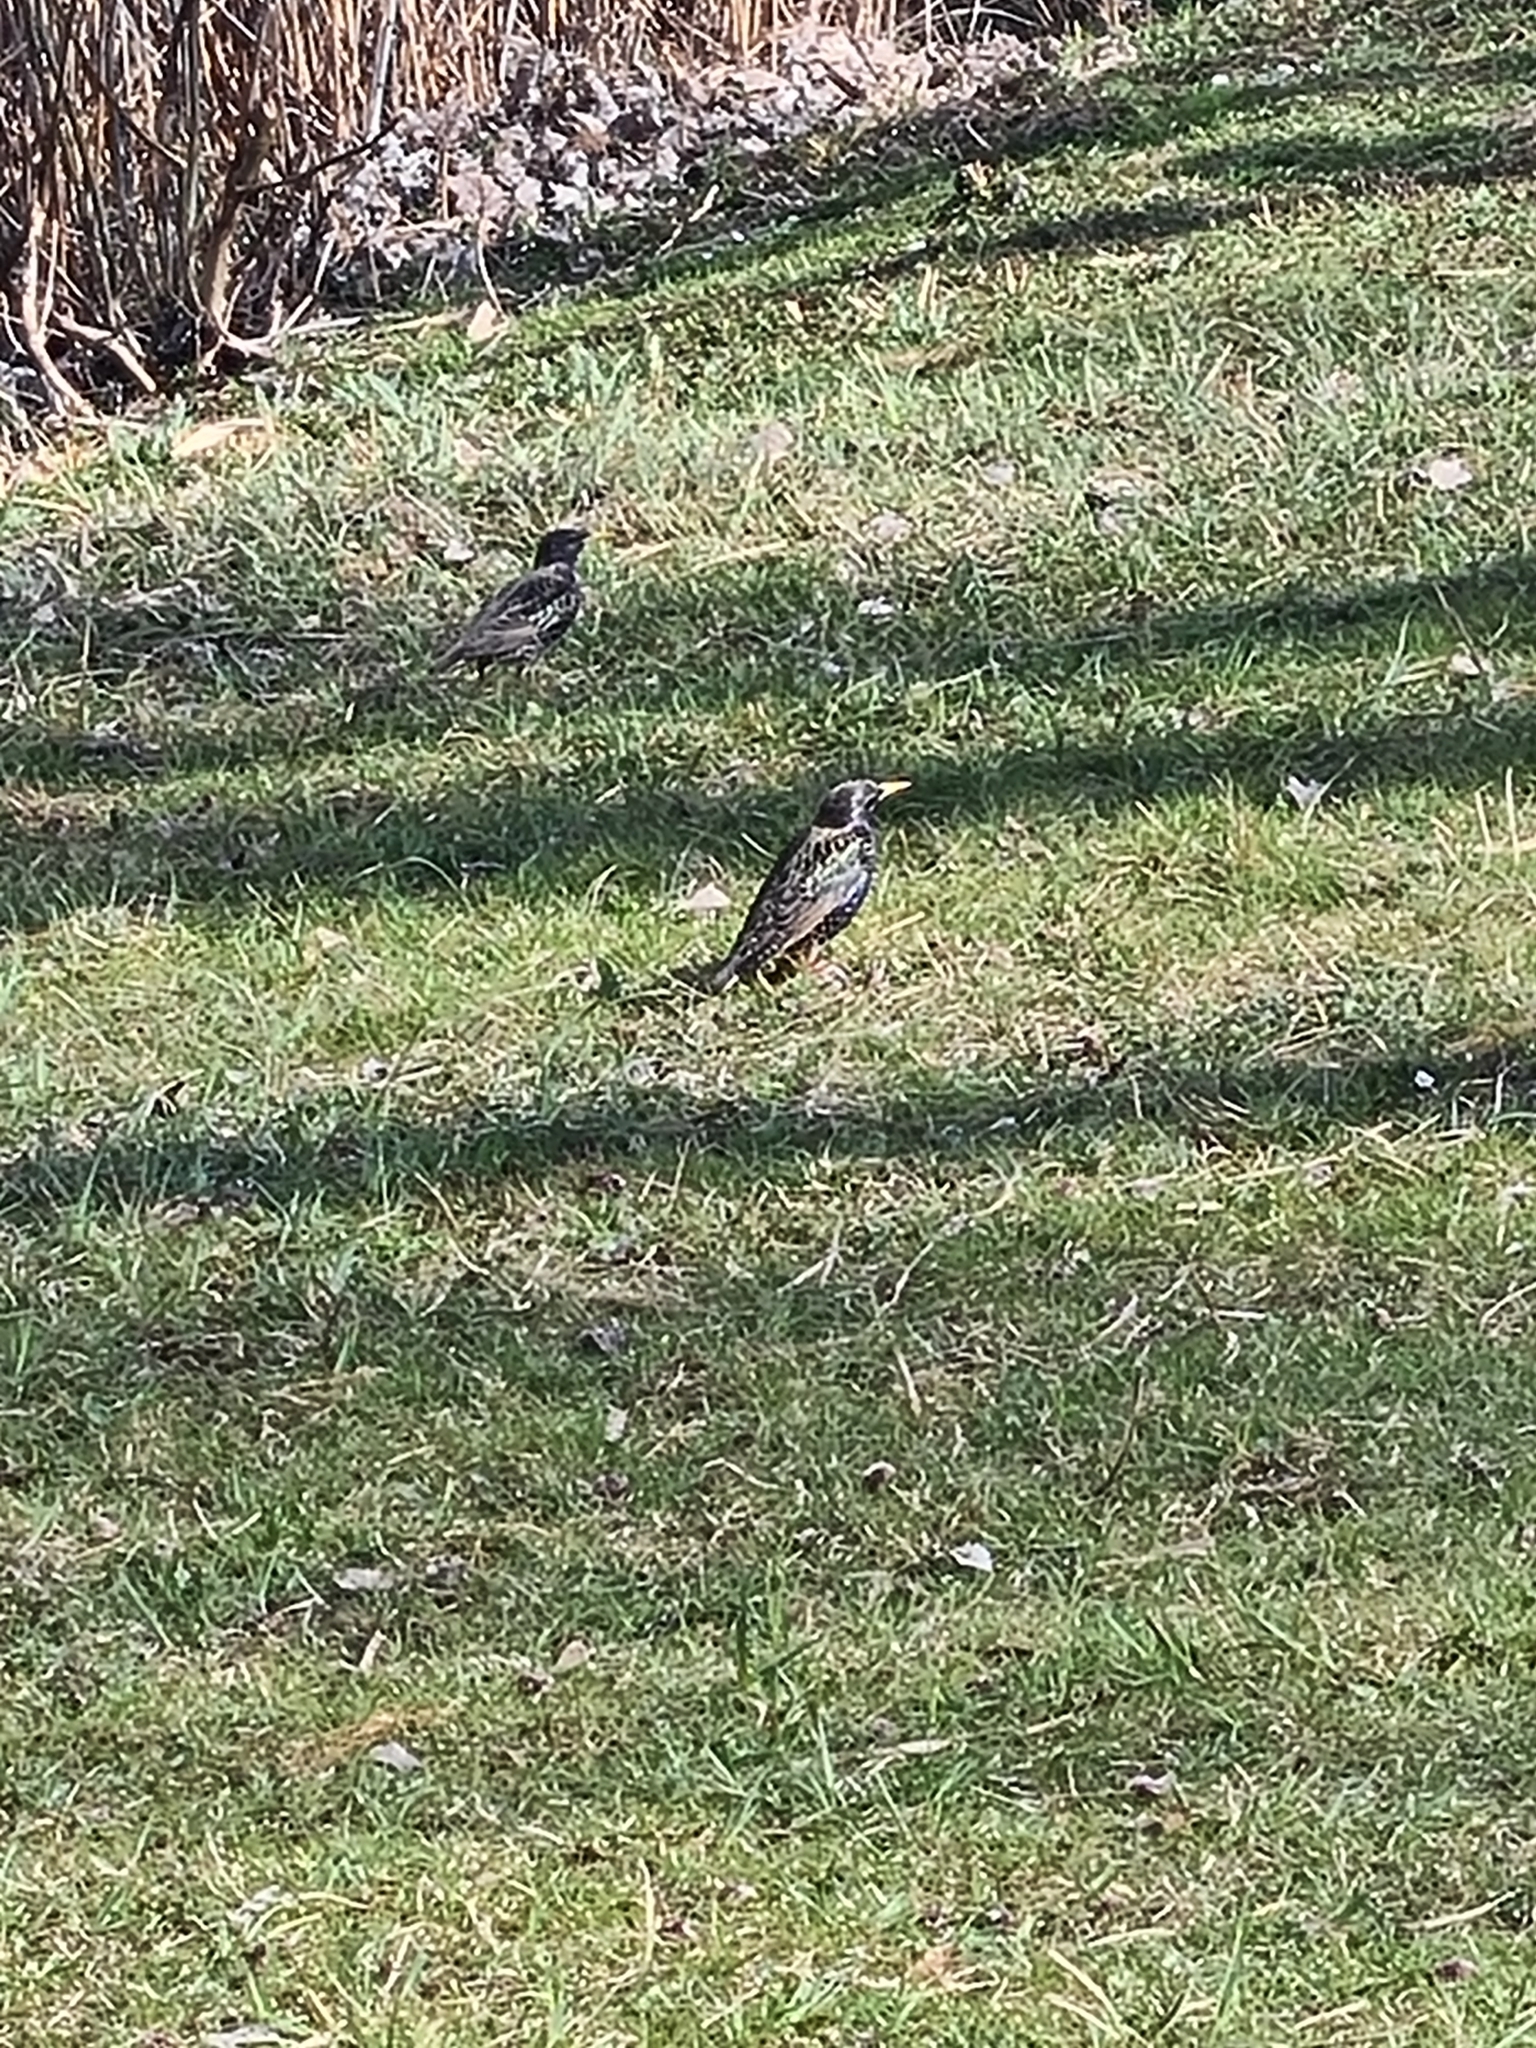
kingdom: Animalia
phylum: Chordata
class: Aves
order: Passeriformes
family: Sturnidae
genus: Sturnus
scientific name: Sturnus vulgaris
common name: Common starling
